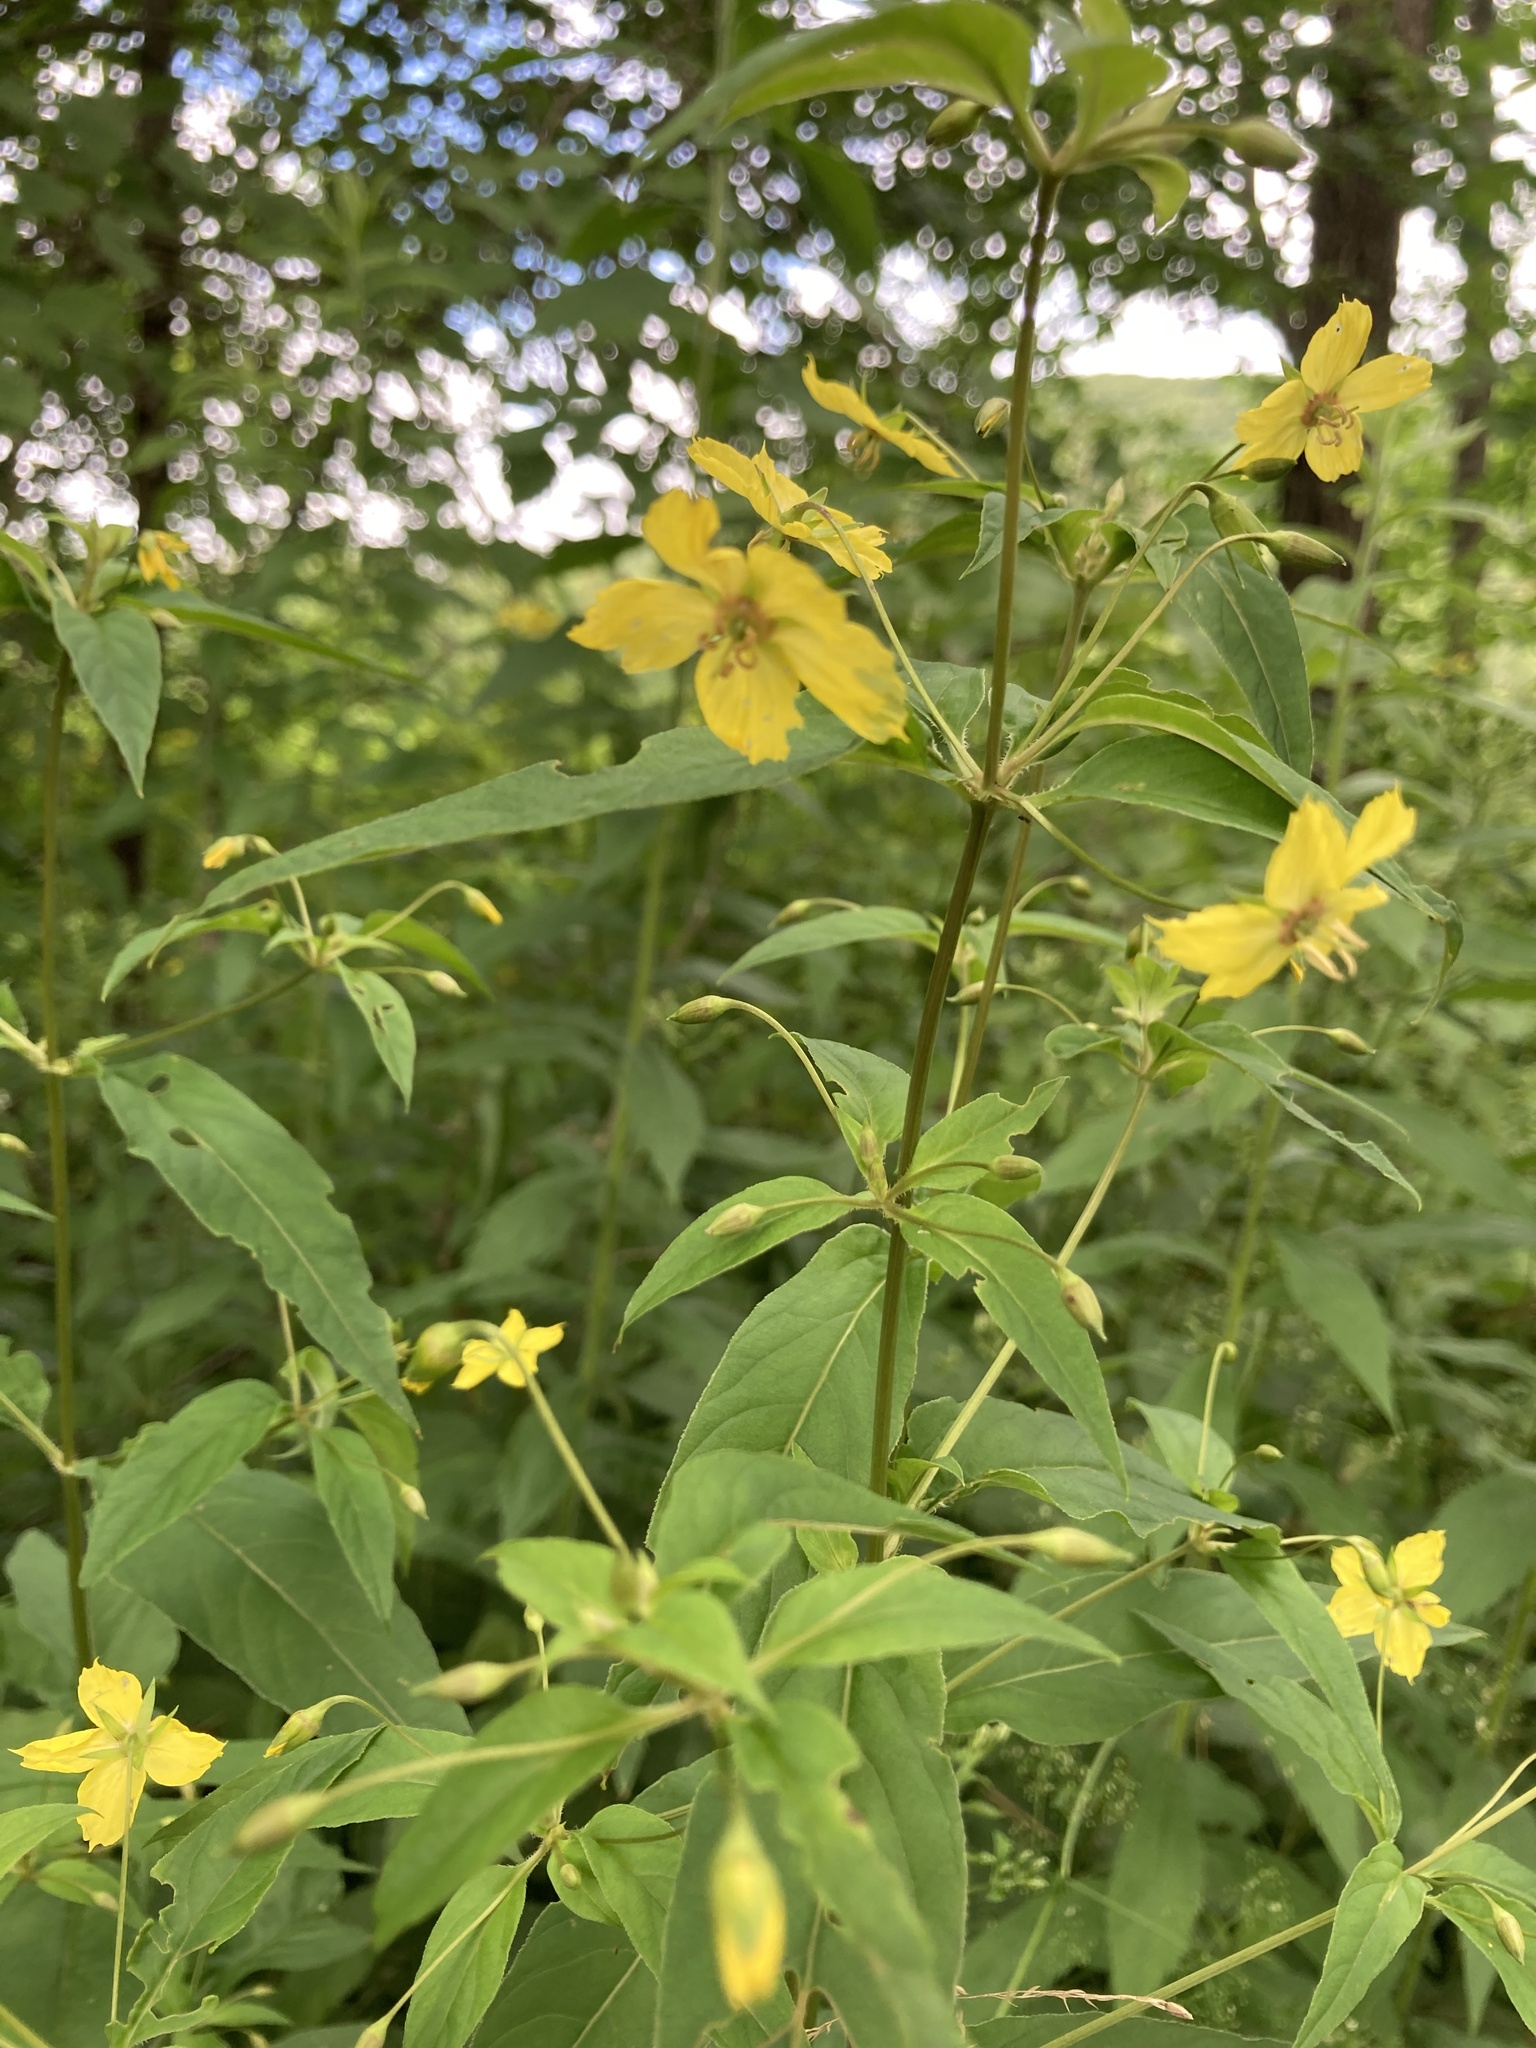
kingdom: Plantae
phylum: Tracheophyta
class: Magnoliopsida
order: Ericales
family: Primulaceae
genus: Lysimachia
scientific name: Lysimachia ciliata
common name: Fringed loosestrife
